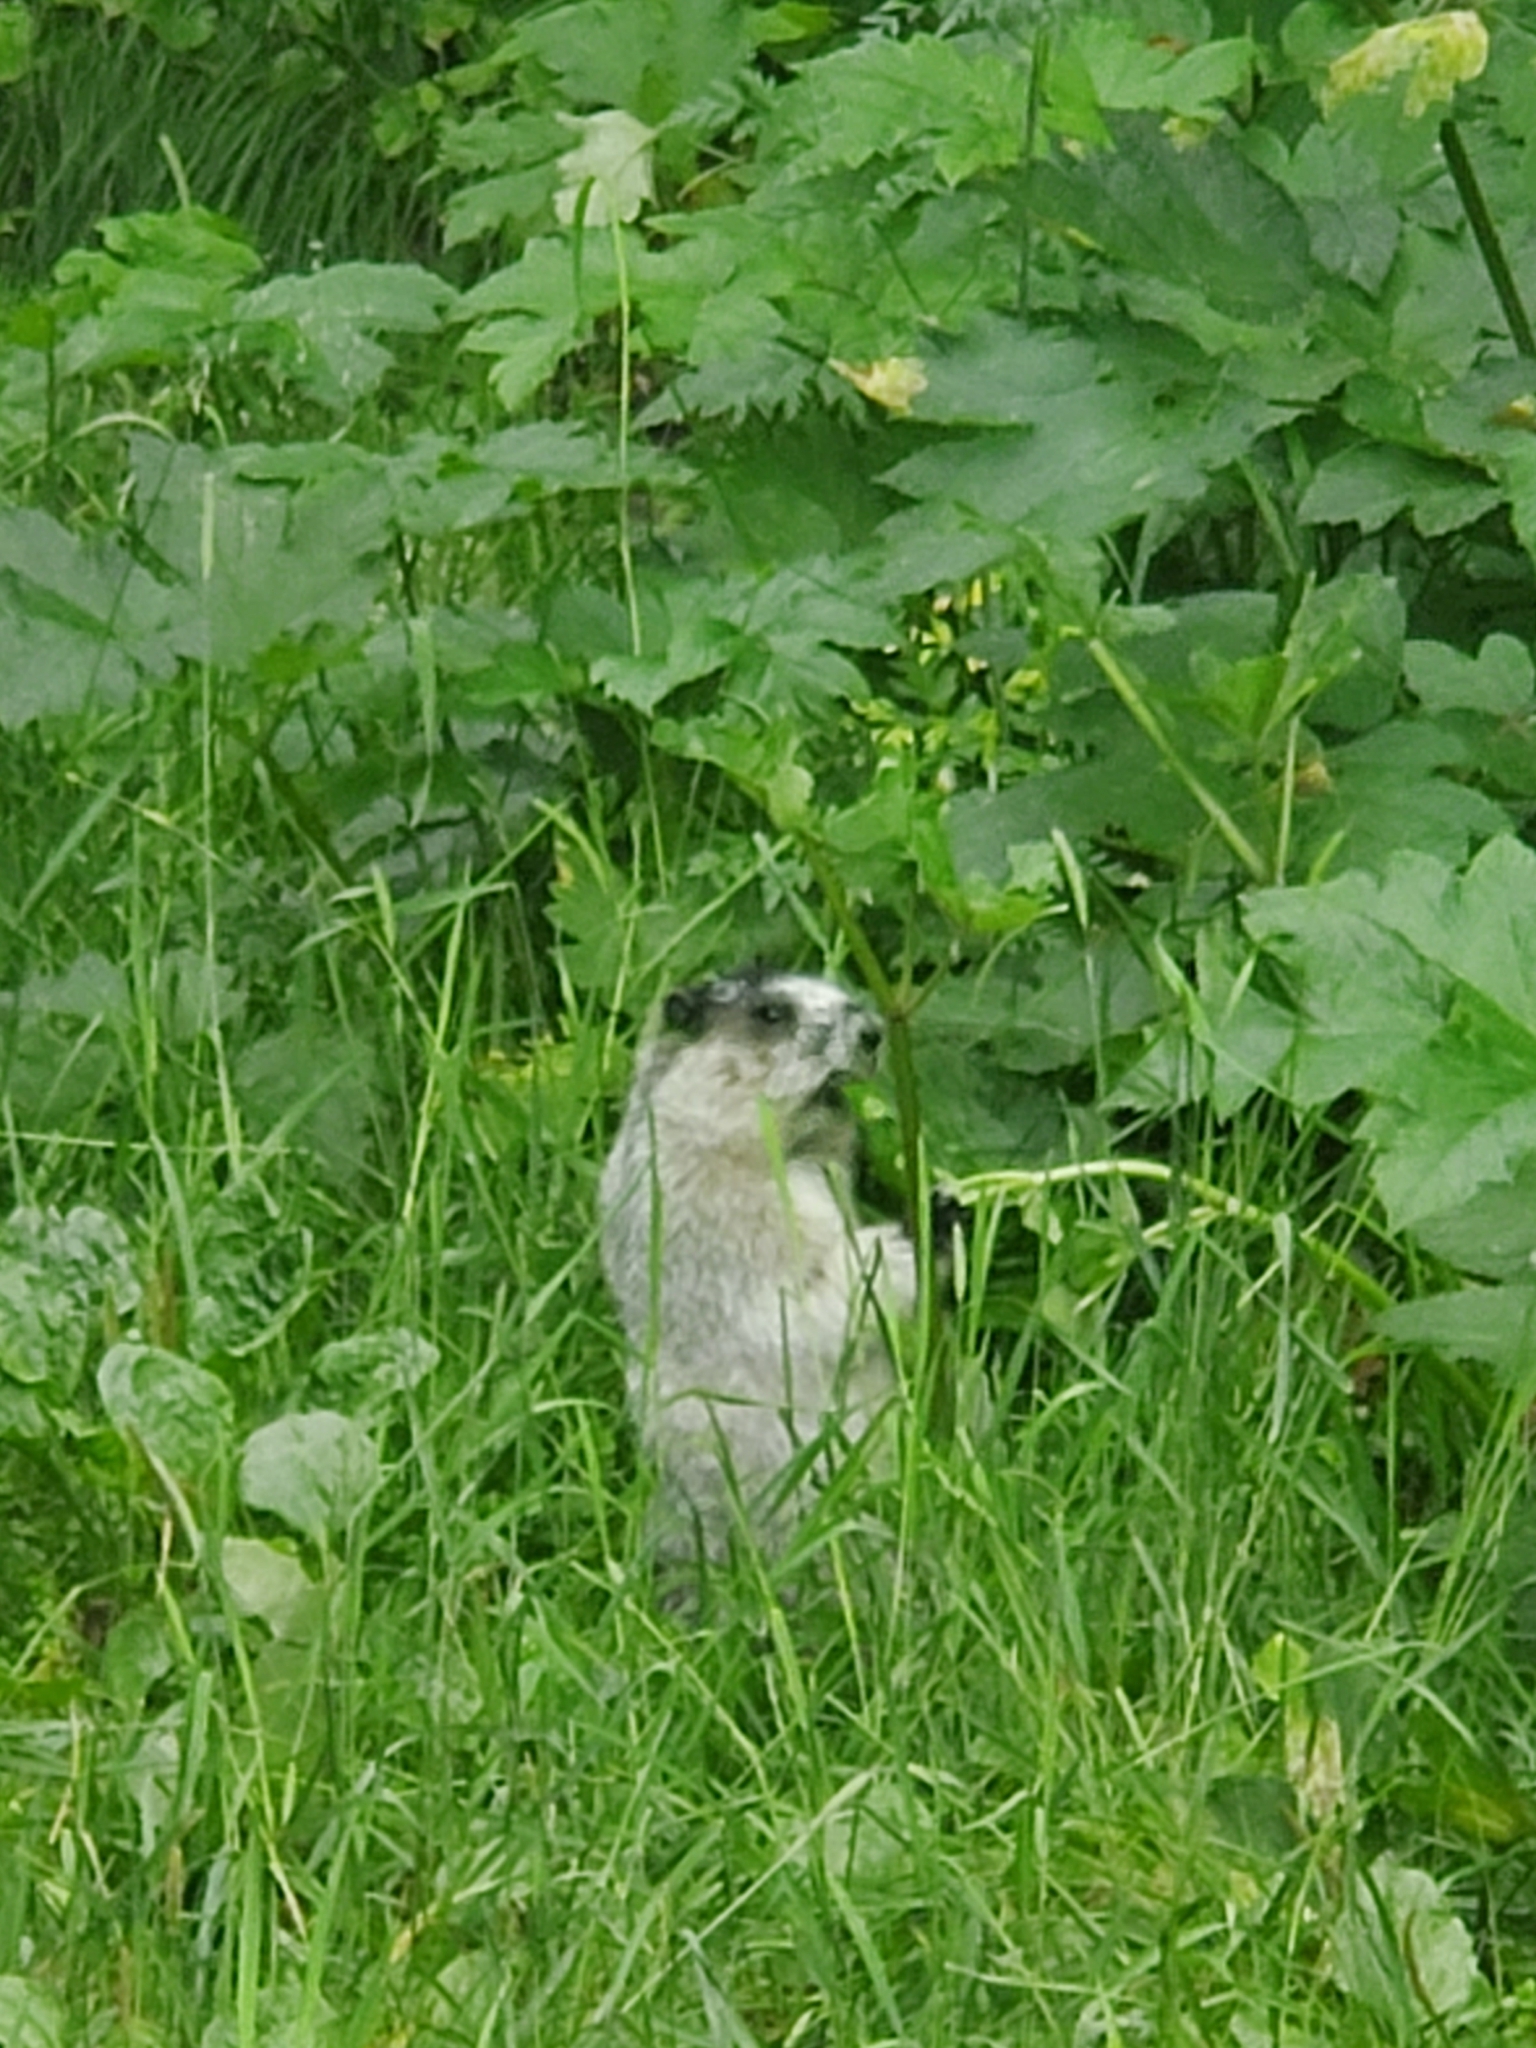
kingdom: Animalia
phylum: Chordata
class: Mammalia
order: Rodentia
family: Sciuridae
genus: Marmota
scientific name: Marmota caligata
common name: Hoary marmot
